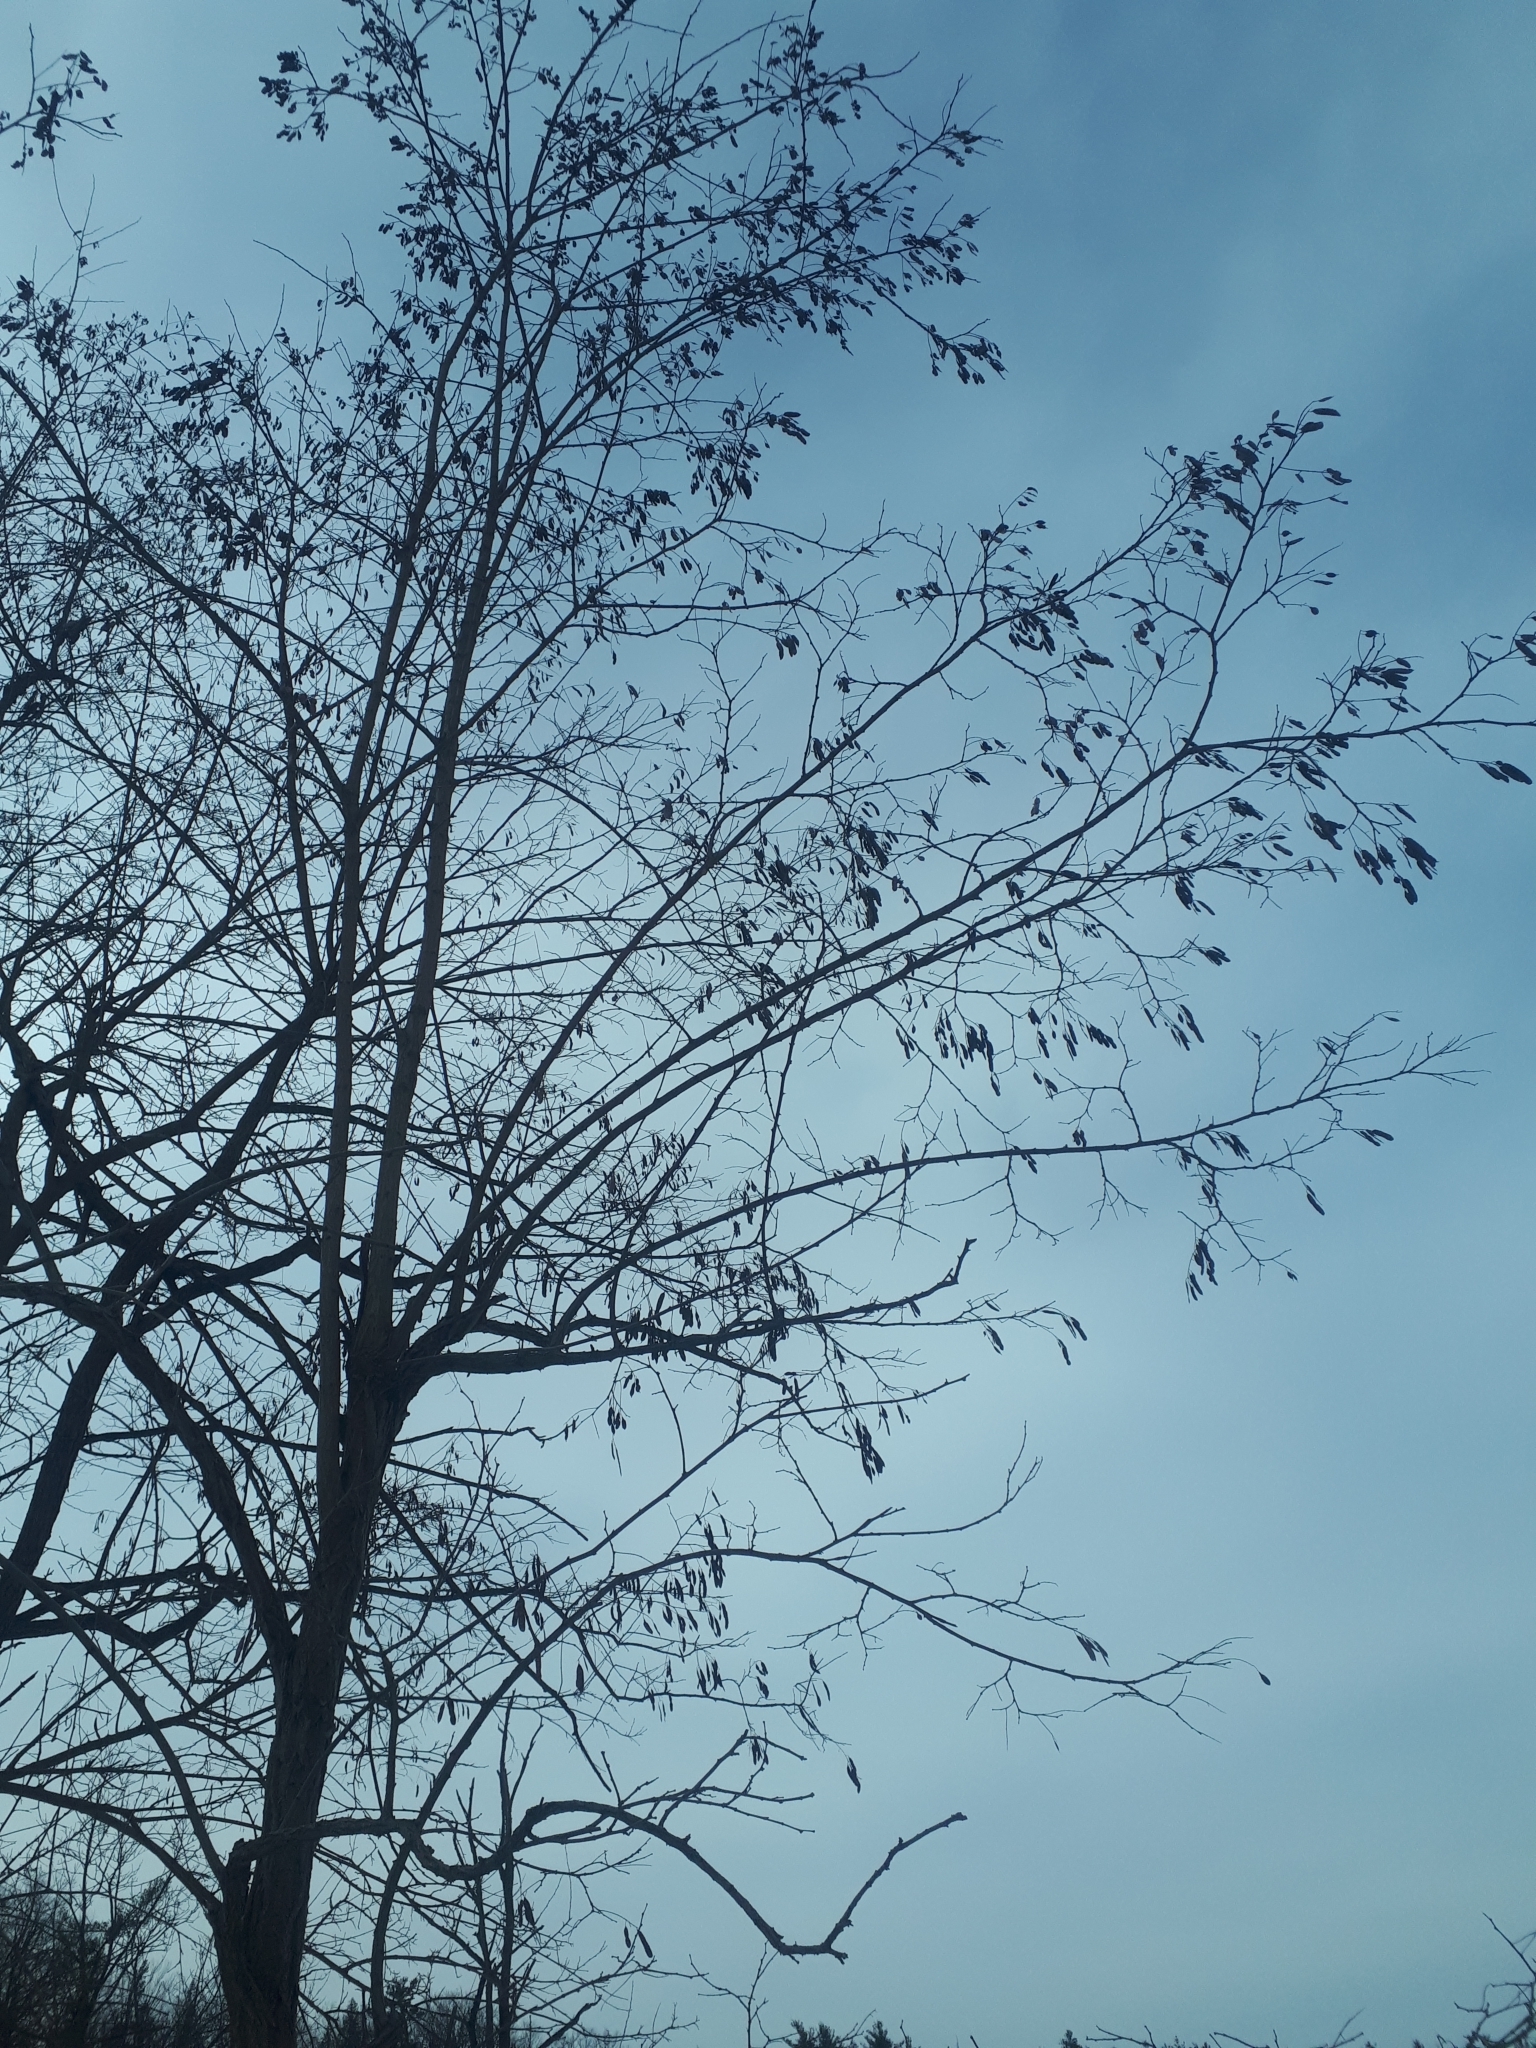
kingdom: Plantae
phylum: Tracheophyta
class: Magnoliopsida
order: Fabales
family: Fabaceae
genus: Robinia
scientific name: Robinia pseudoacacia
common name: Black locust
